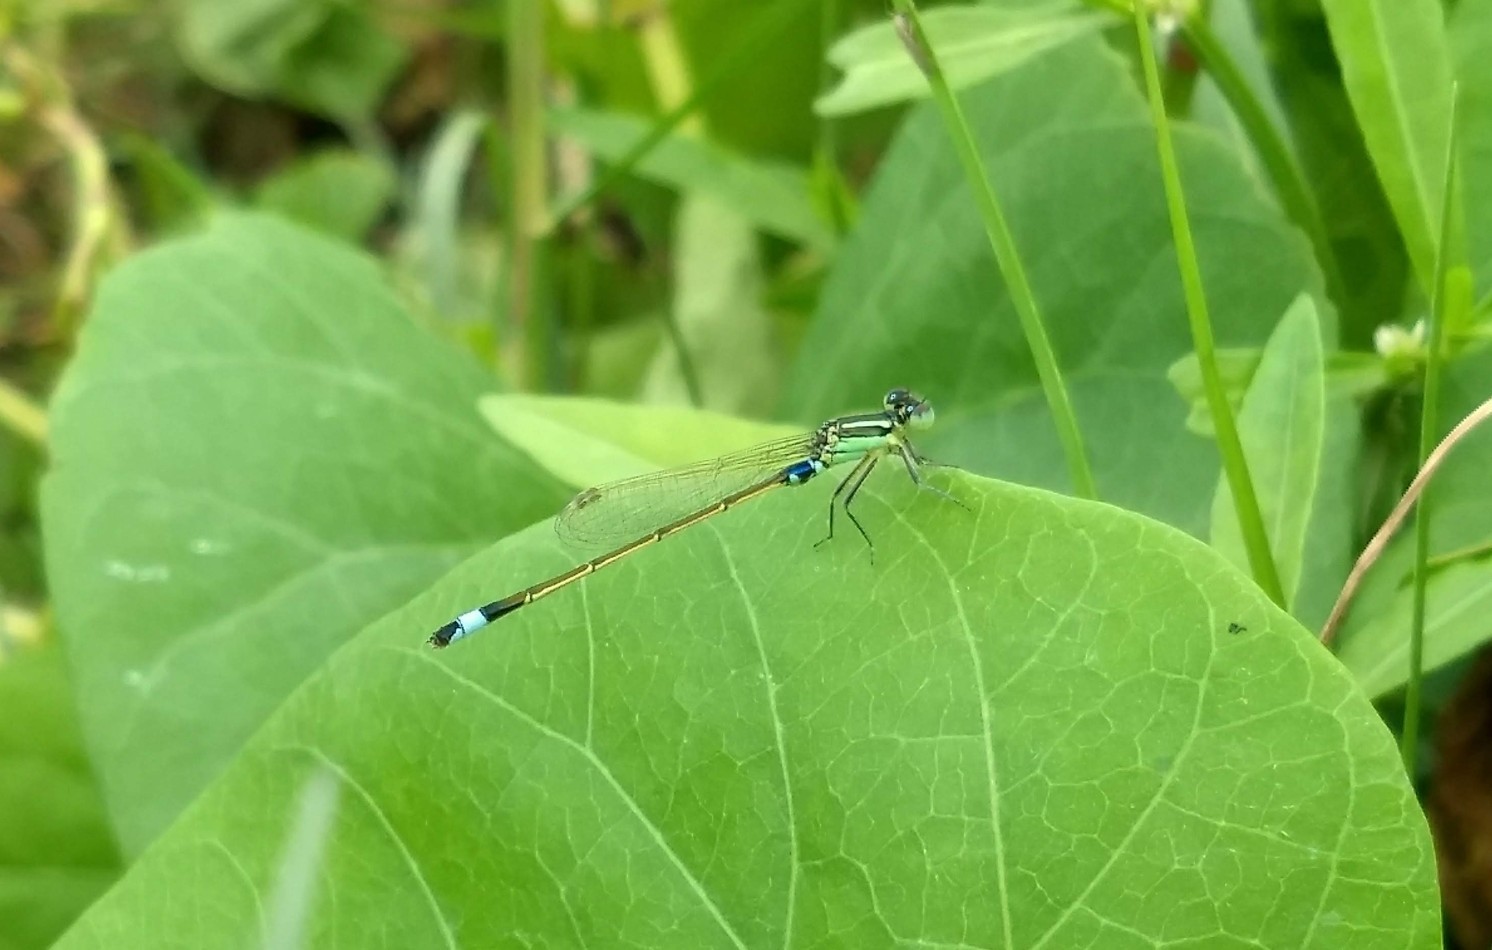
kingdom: Animalia
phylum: Arthropoda
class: Insecta
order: Odonata
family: Coenagrionidae
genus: Ischnura
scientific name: Ischnura senegalensis
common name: Tropical bluetail
